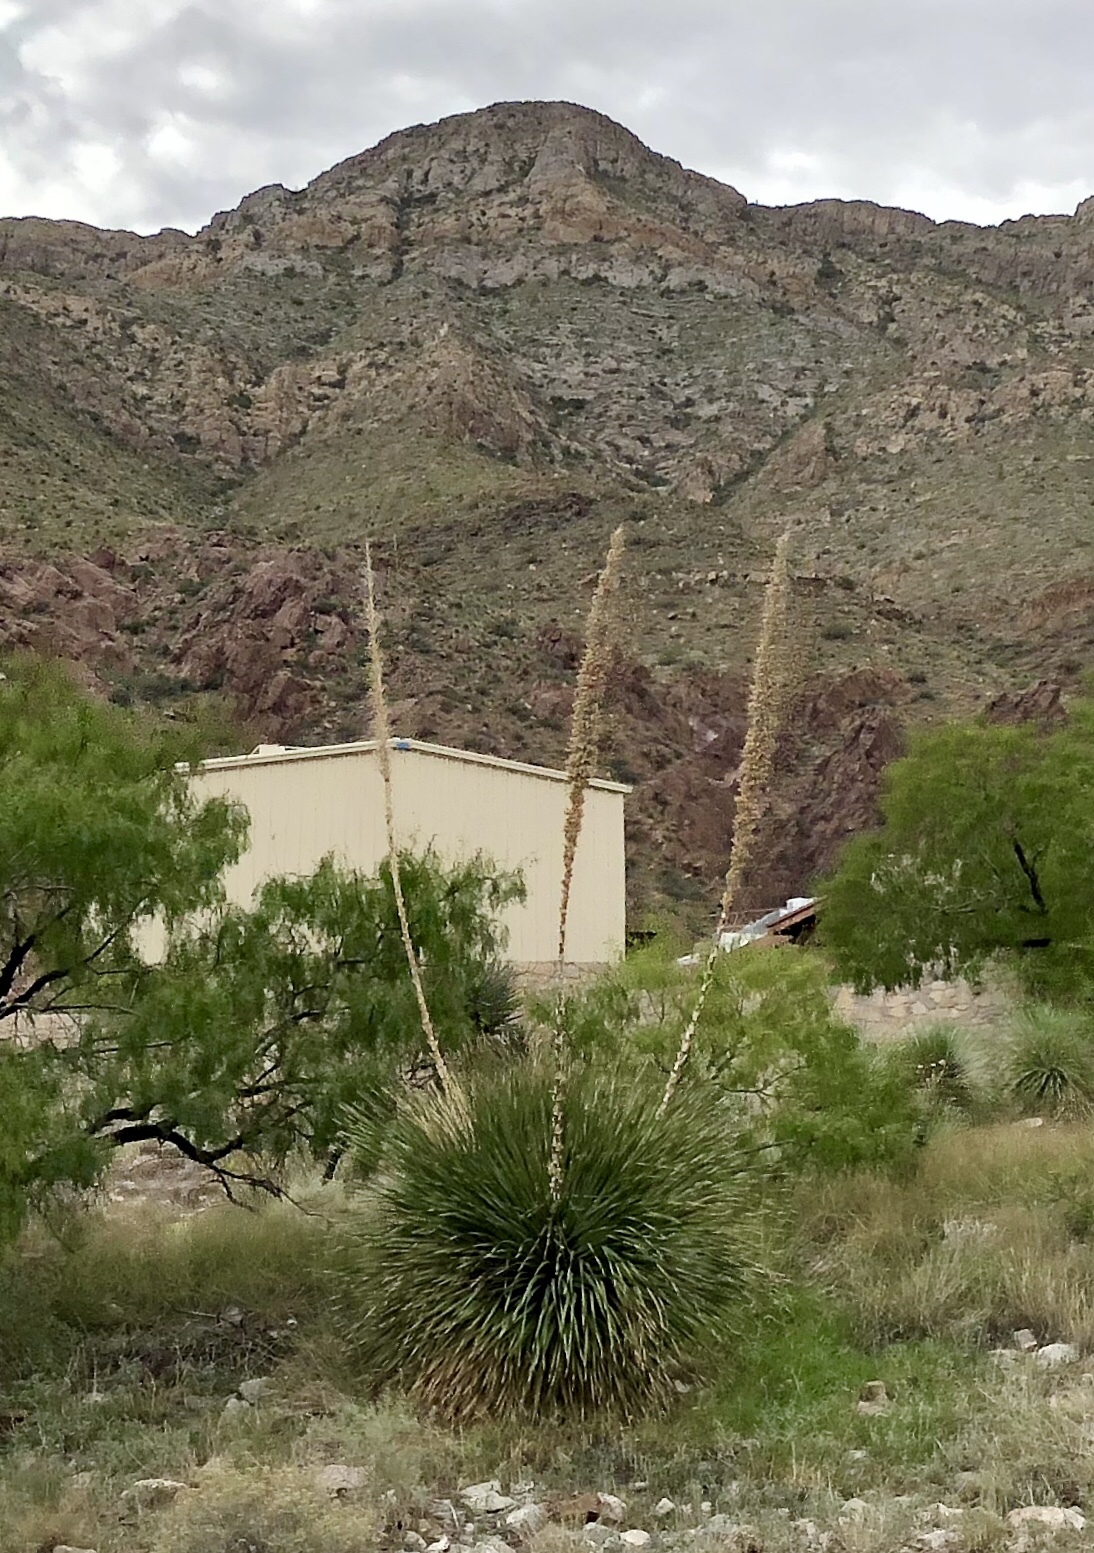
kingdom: Plantae
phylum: Tracheophyta
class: Liliopsida
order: Asparagales
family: Asparagaceae
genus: Dasylirion
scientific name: Dasylirion wheeleri
